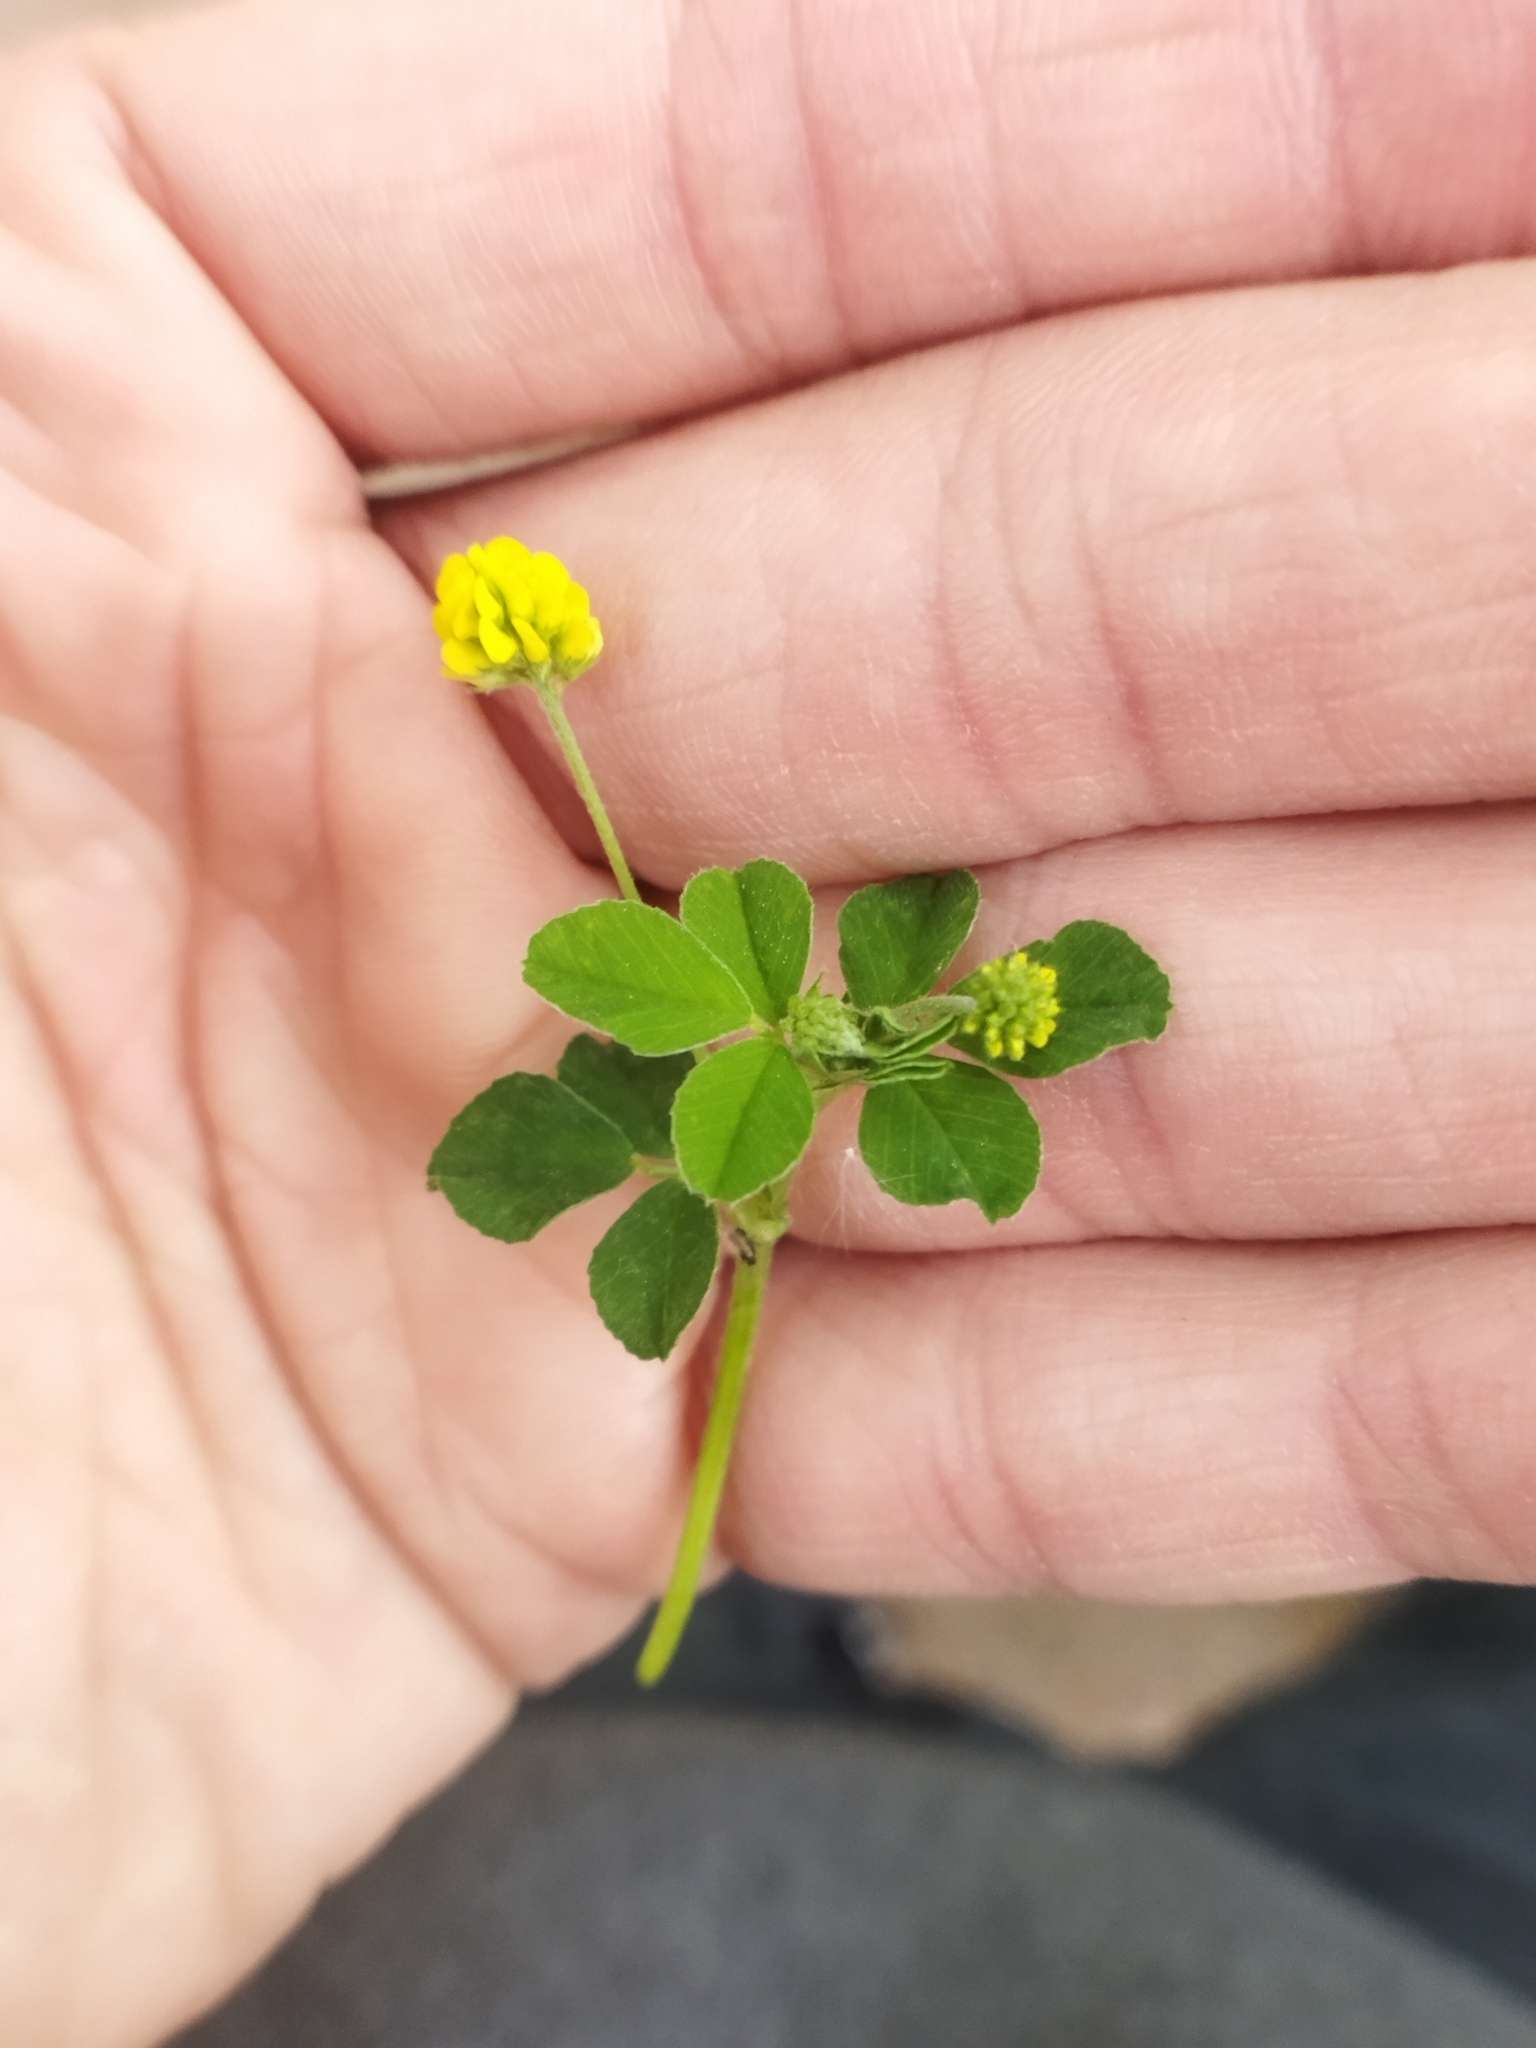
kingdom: Plantae
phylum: Tracheophyta
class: Magnoliopsida
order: Fabales
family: Fabaceae
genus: Medicago
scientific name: Medicago lupulina
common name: Black medick
